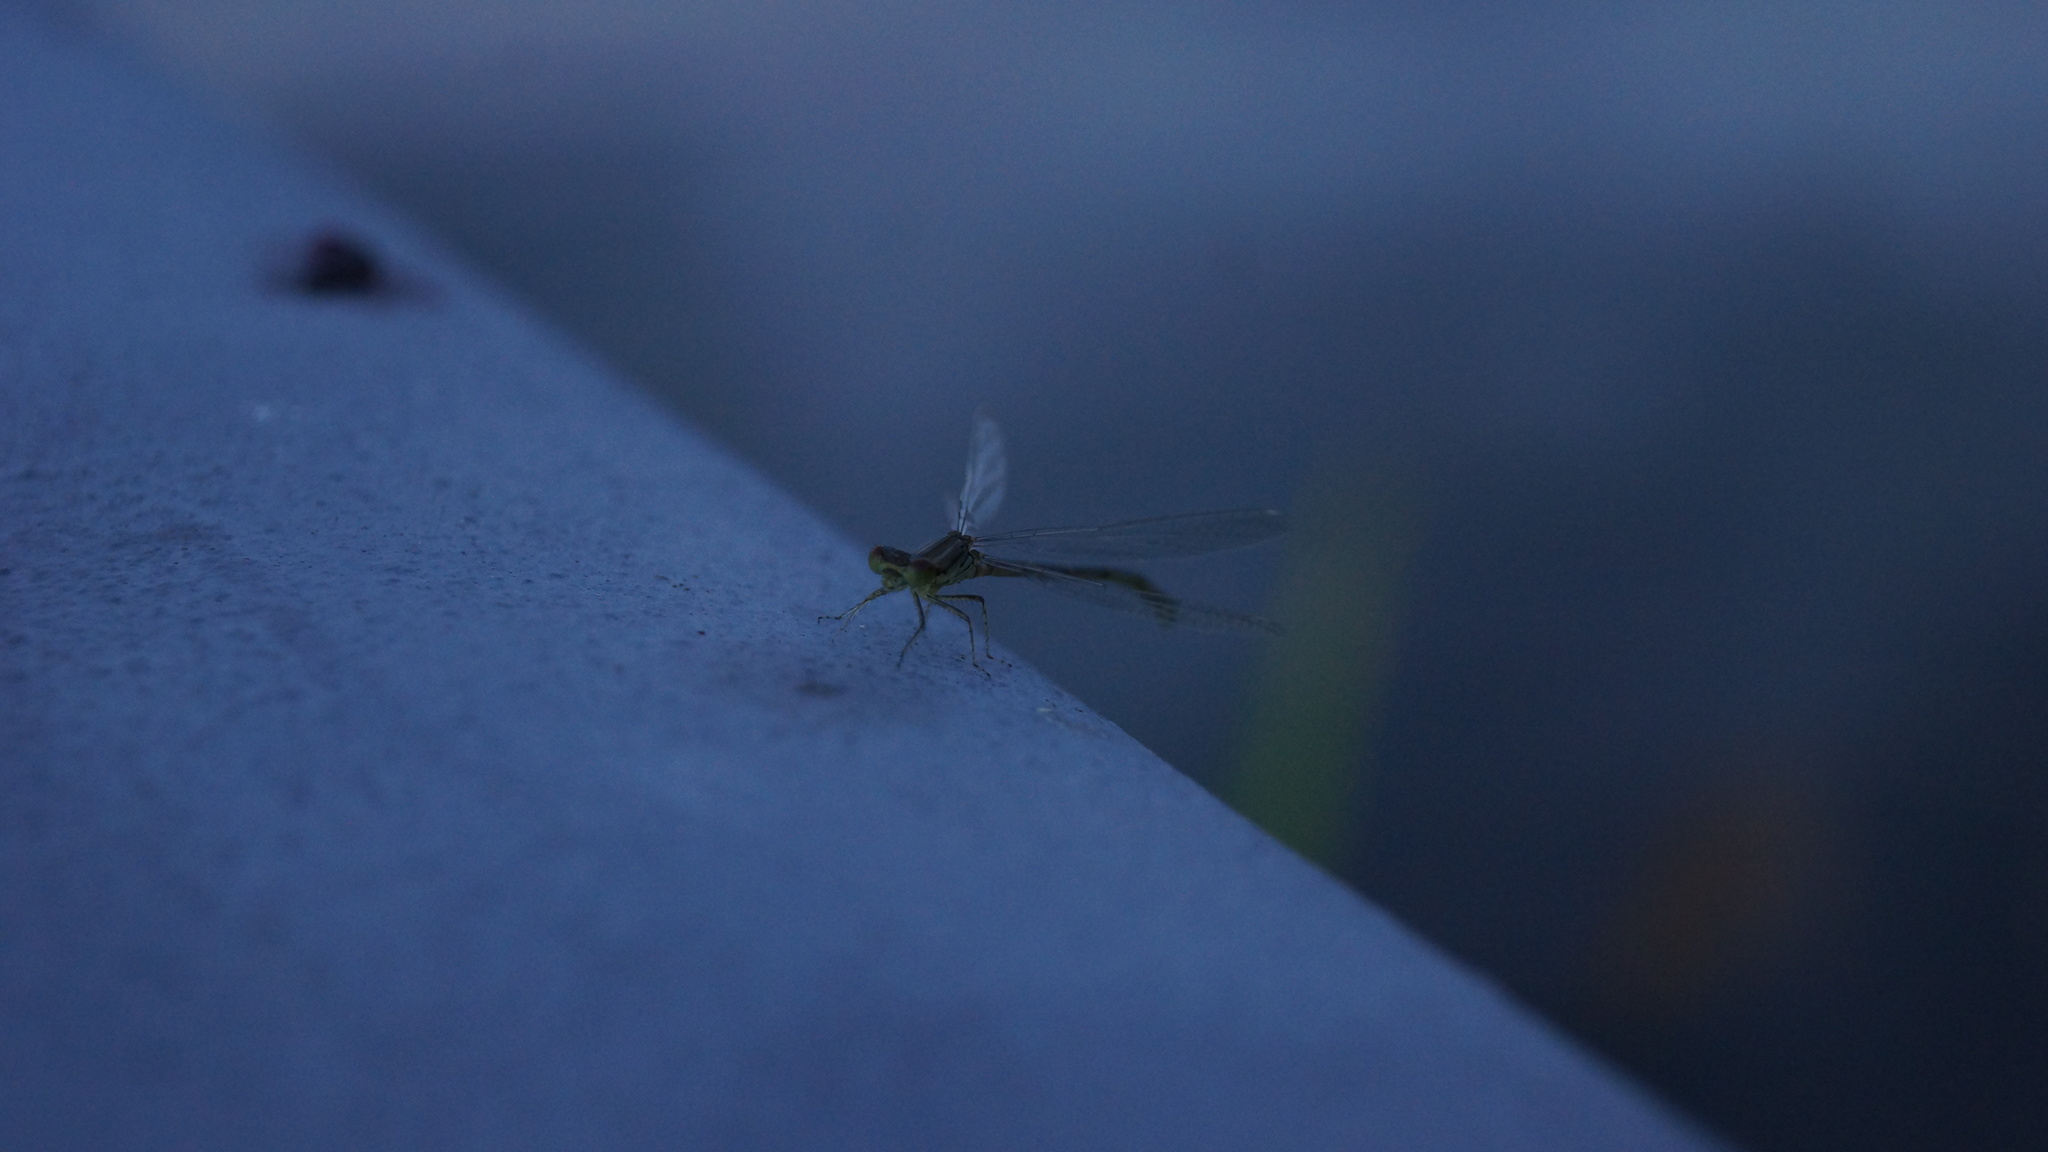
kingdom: Animalia
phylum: Arthropoda
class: Insecta
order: Odonata
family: Coenagrionidae
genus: Erythromma
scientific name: Erythromma viridulum
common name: Small red-eyed damselfly
